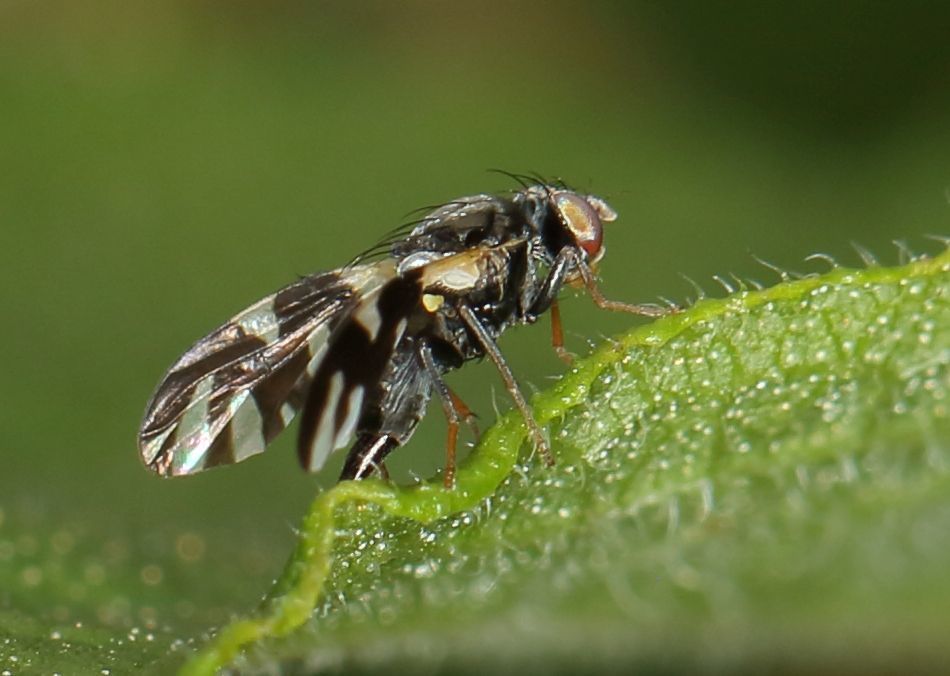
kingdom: Animalia
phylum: Arthropoda
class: Insecta
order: Diptera
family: Tephritidae
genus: Sphaeniscus
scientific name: Sphaeniscus sexmaculatus
